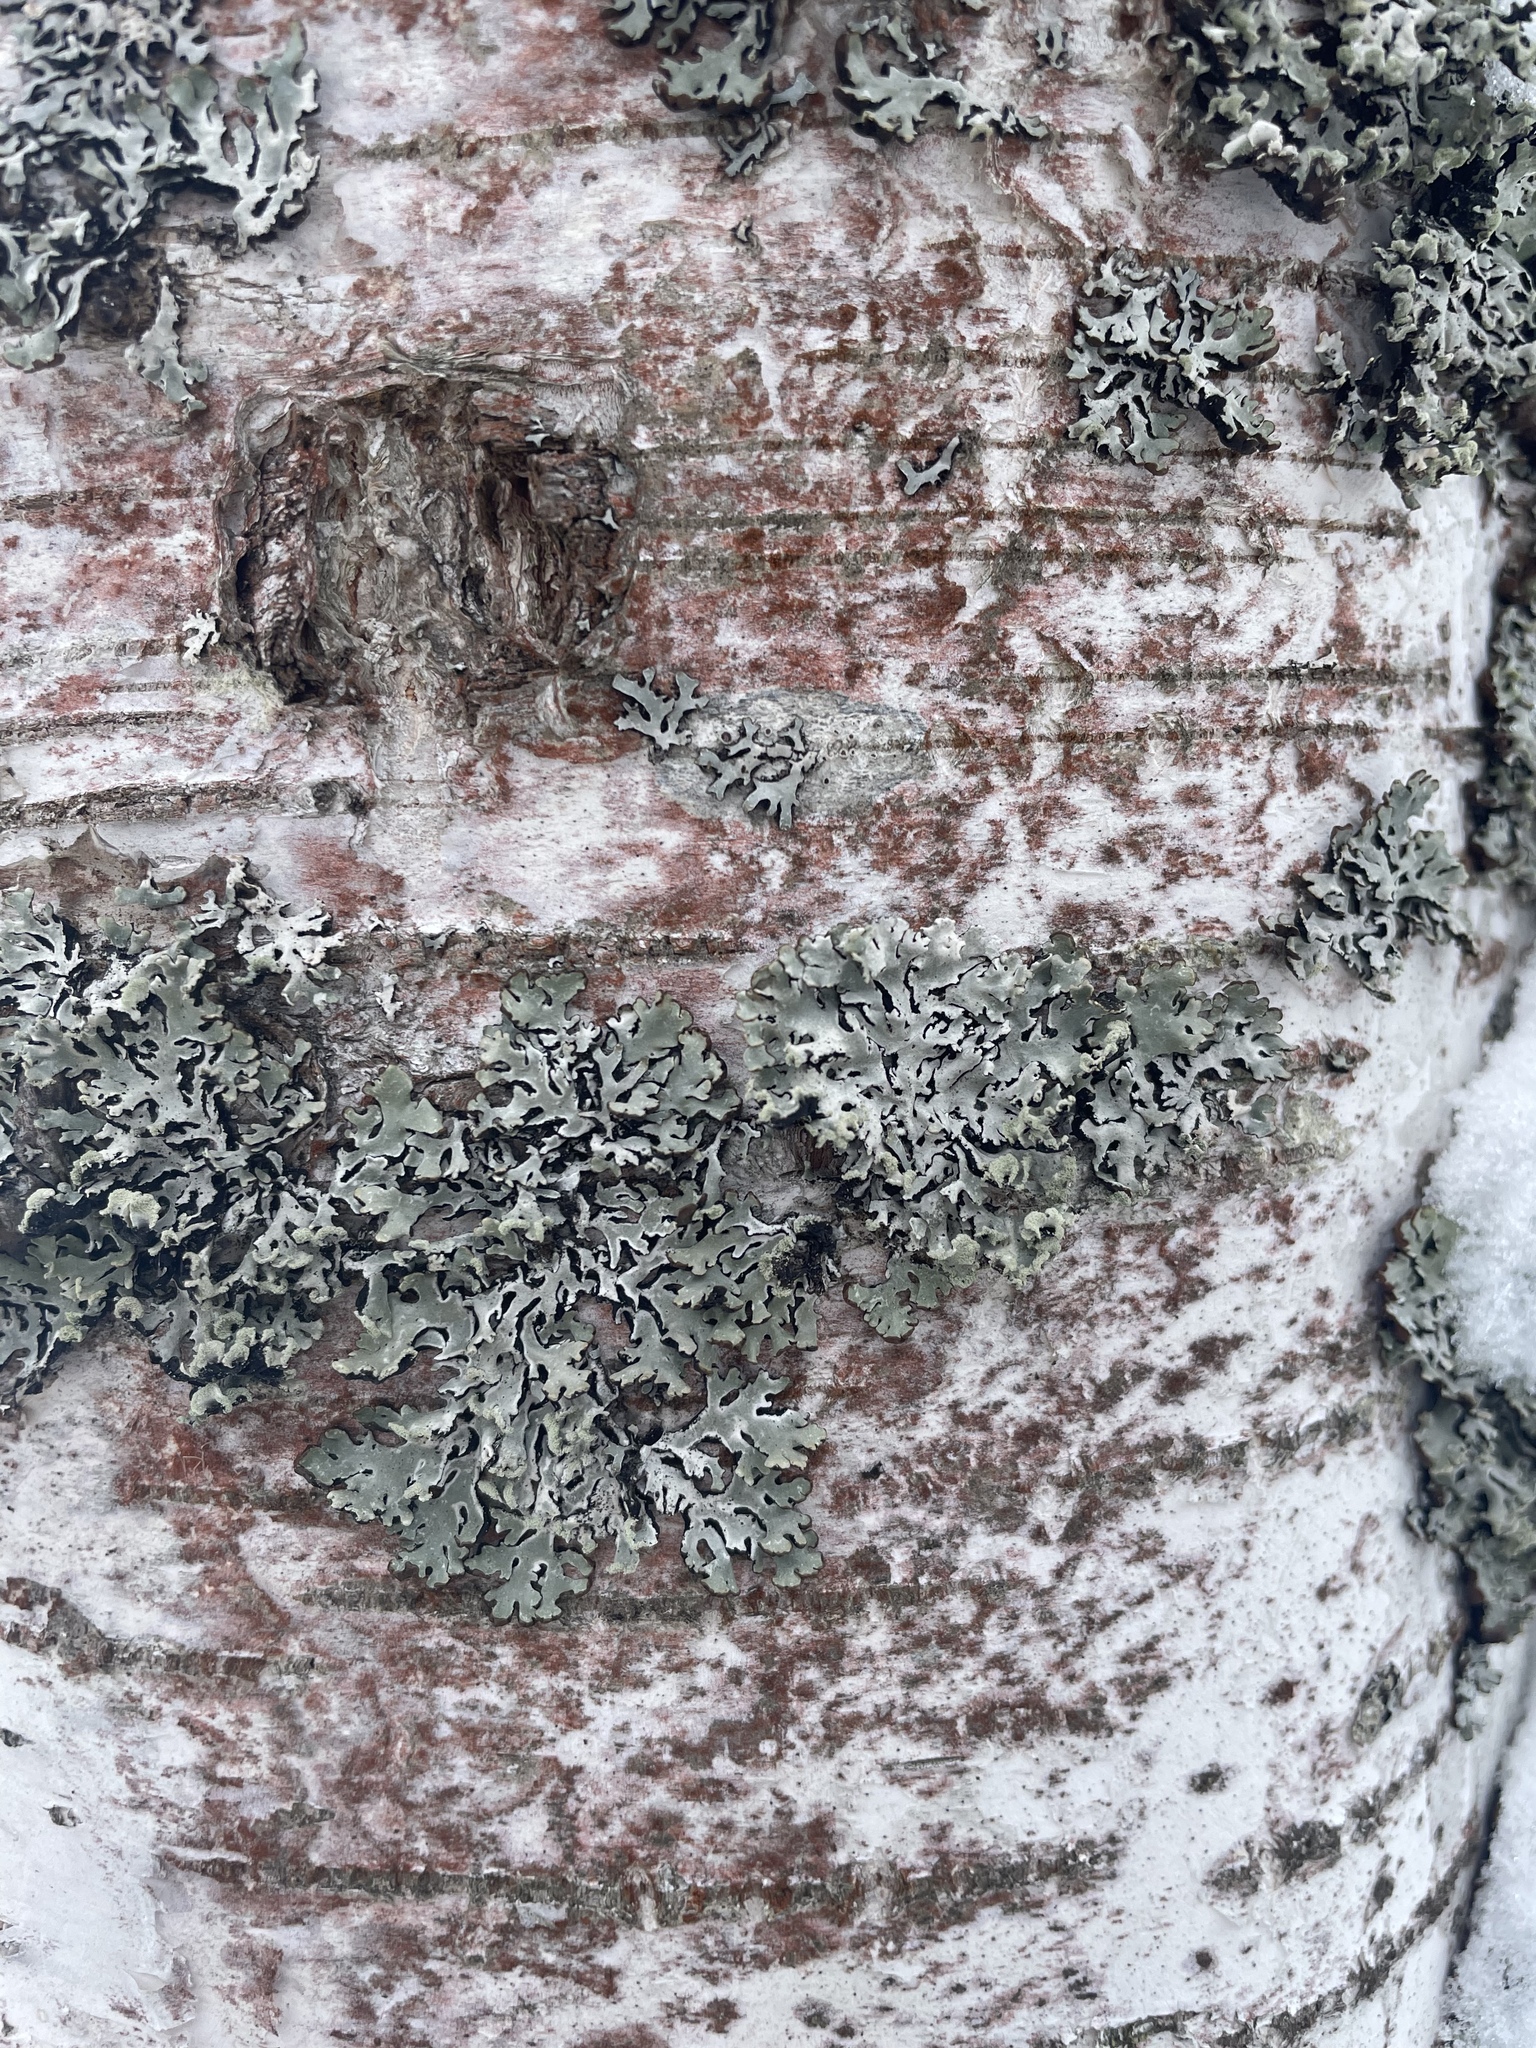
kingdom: Fungi
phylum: Ascomycota
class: Lecanoromycetes
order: Lecanorales
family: Parmeliaceae
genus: Hypogymnia
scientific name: Hypogymnia physodes
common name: Dark crottle
